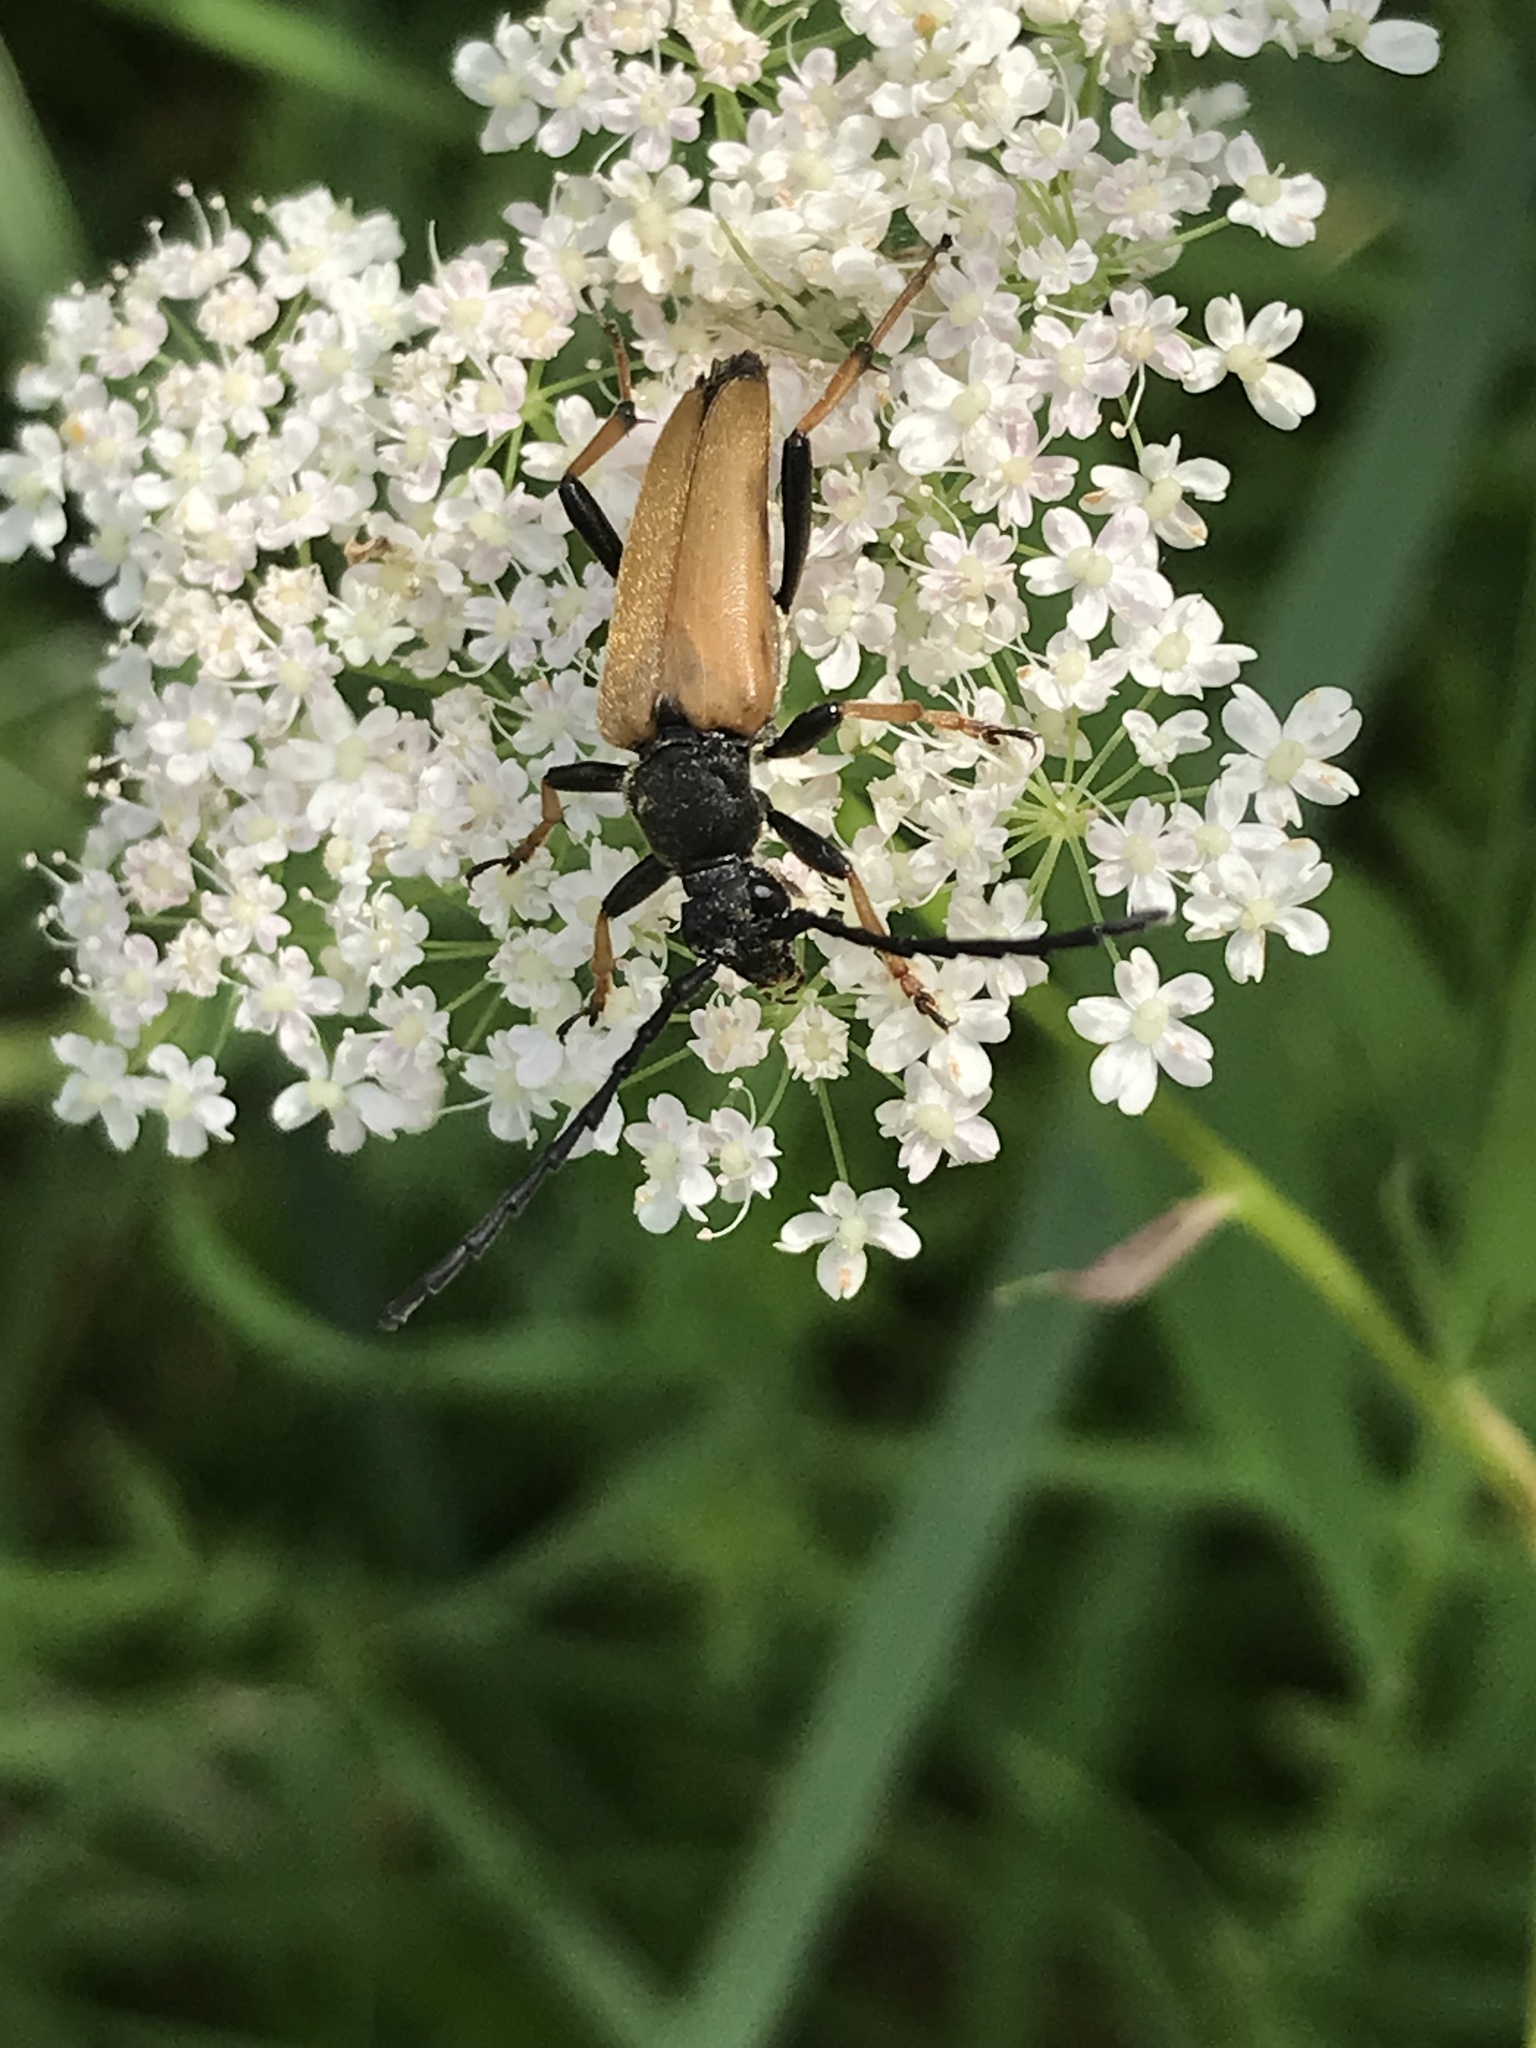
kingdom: Animalia
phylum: Arthropoda
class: Insecta
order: Coleoptera
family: Cerambycidae
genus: Stictoleptura
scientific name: Stictoleptura rubra
